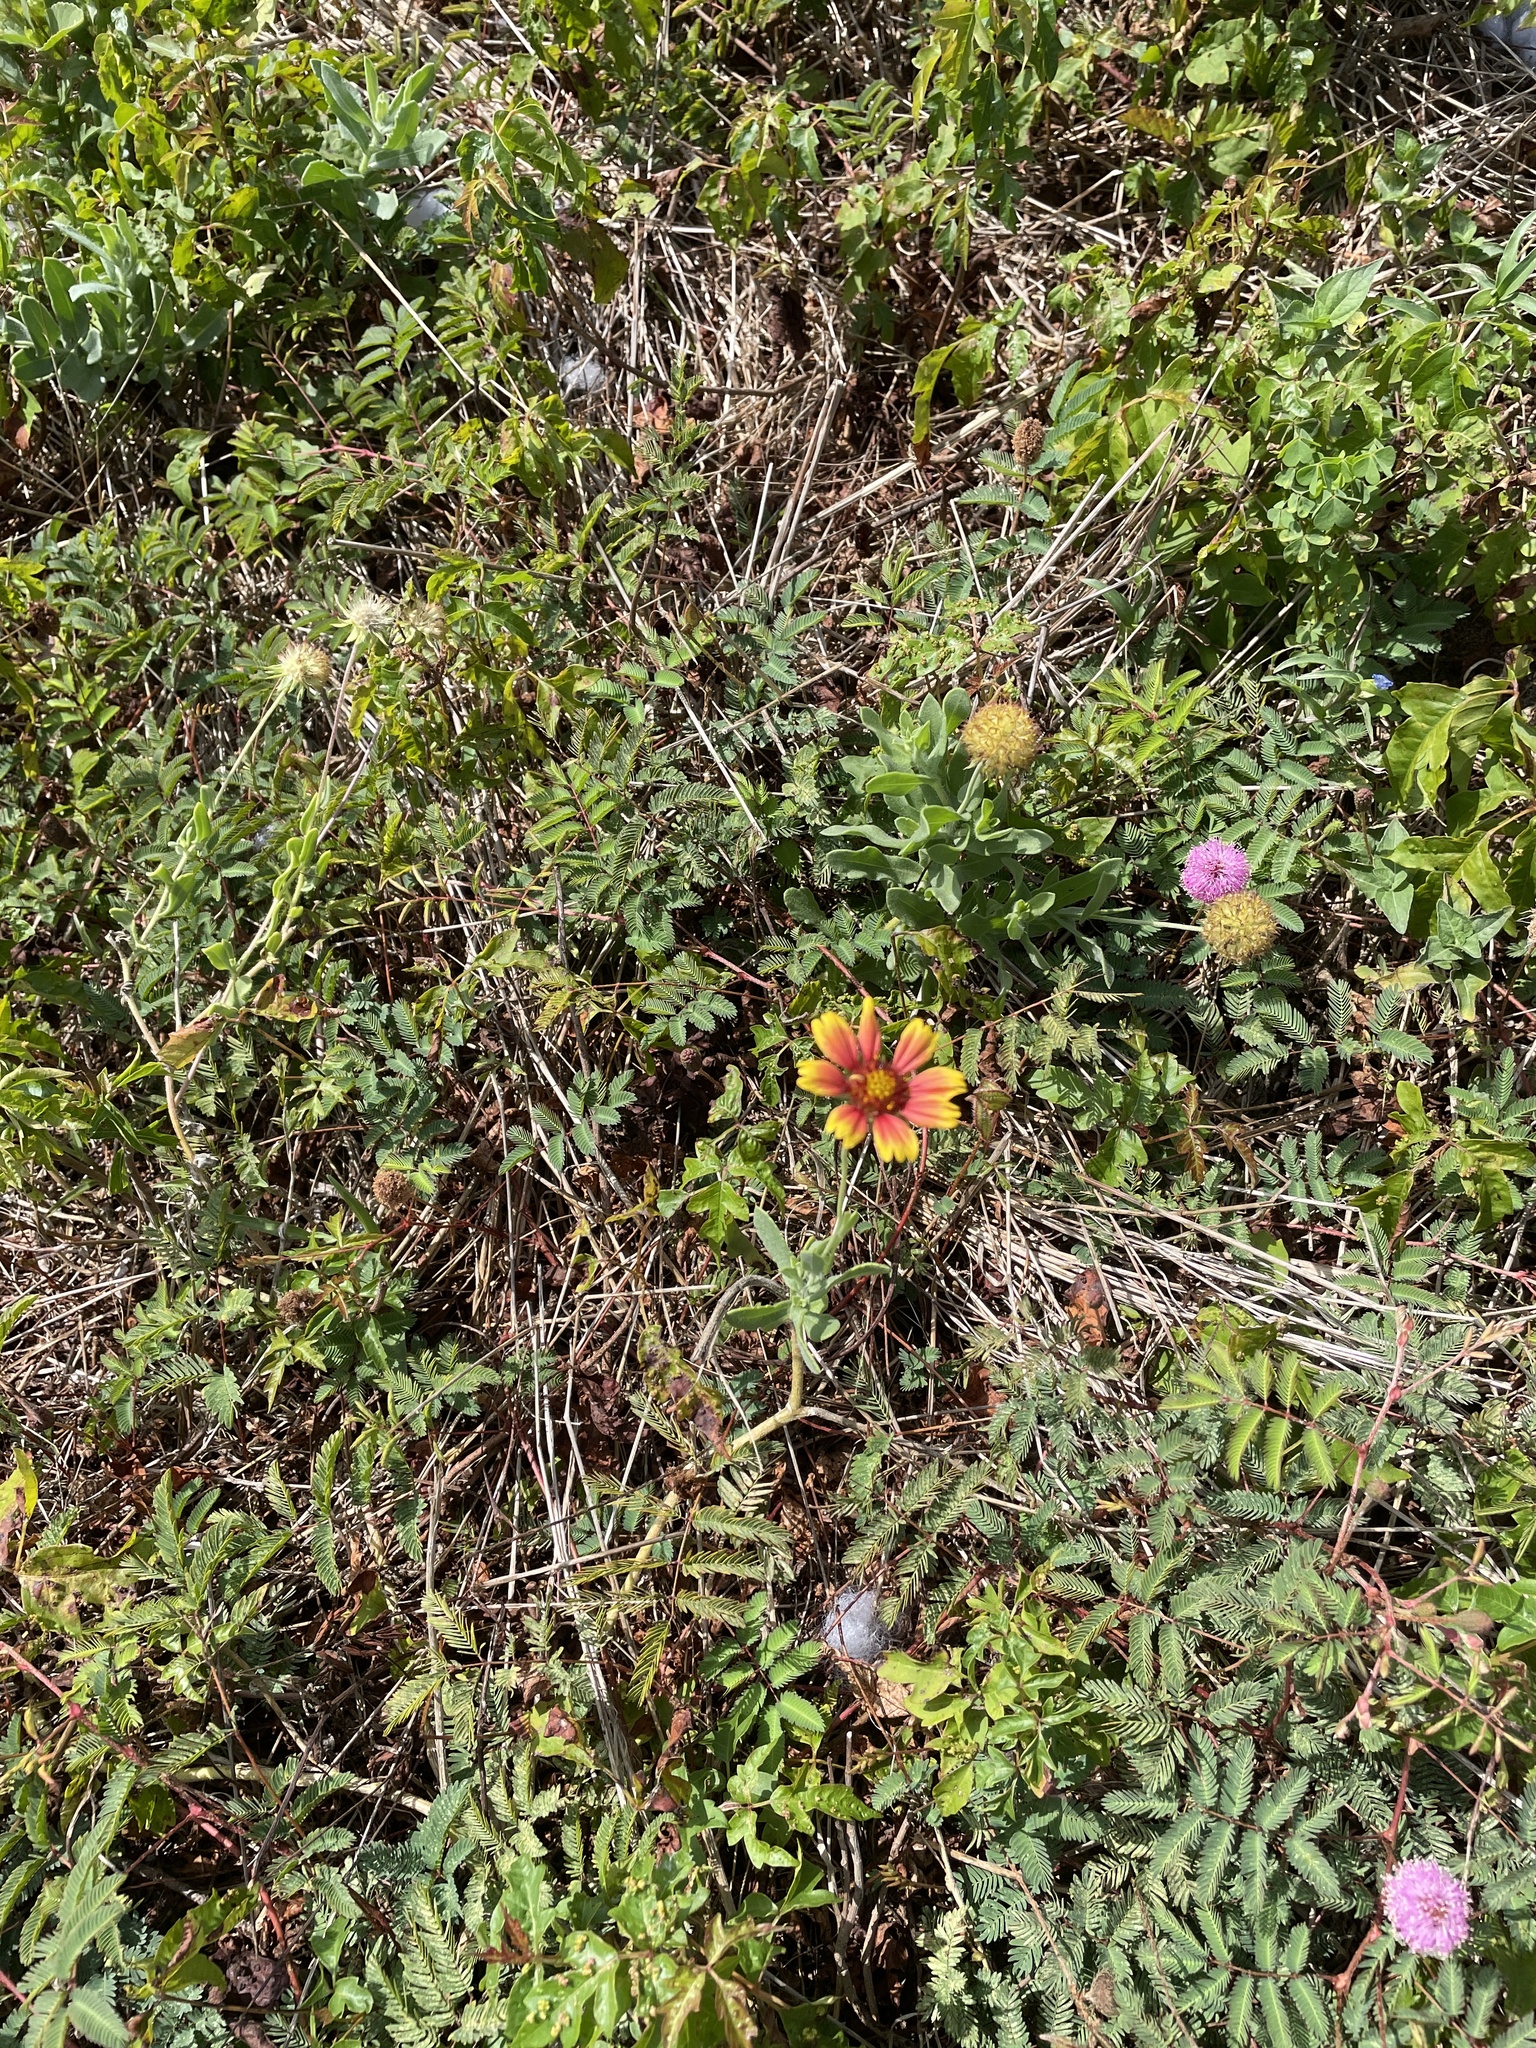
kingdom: Plantae
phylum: Tracheophyta
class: Magnoliopsida
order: Asterales
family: Asteraceae
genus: Gaillardia
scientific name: Gaillardia pulchella
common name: Firewheel
